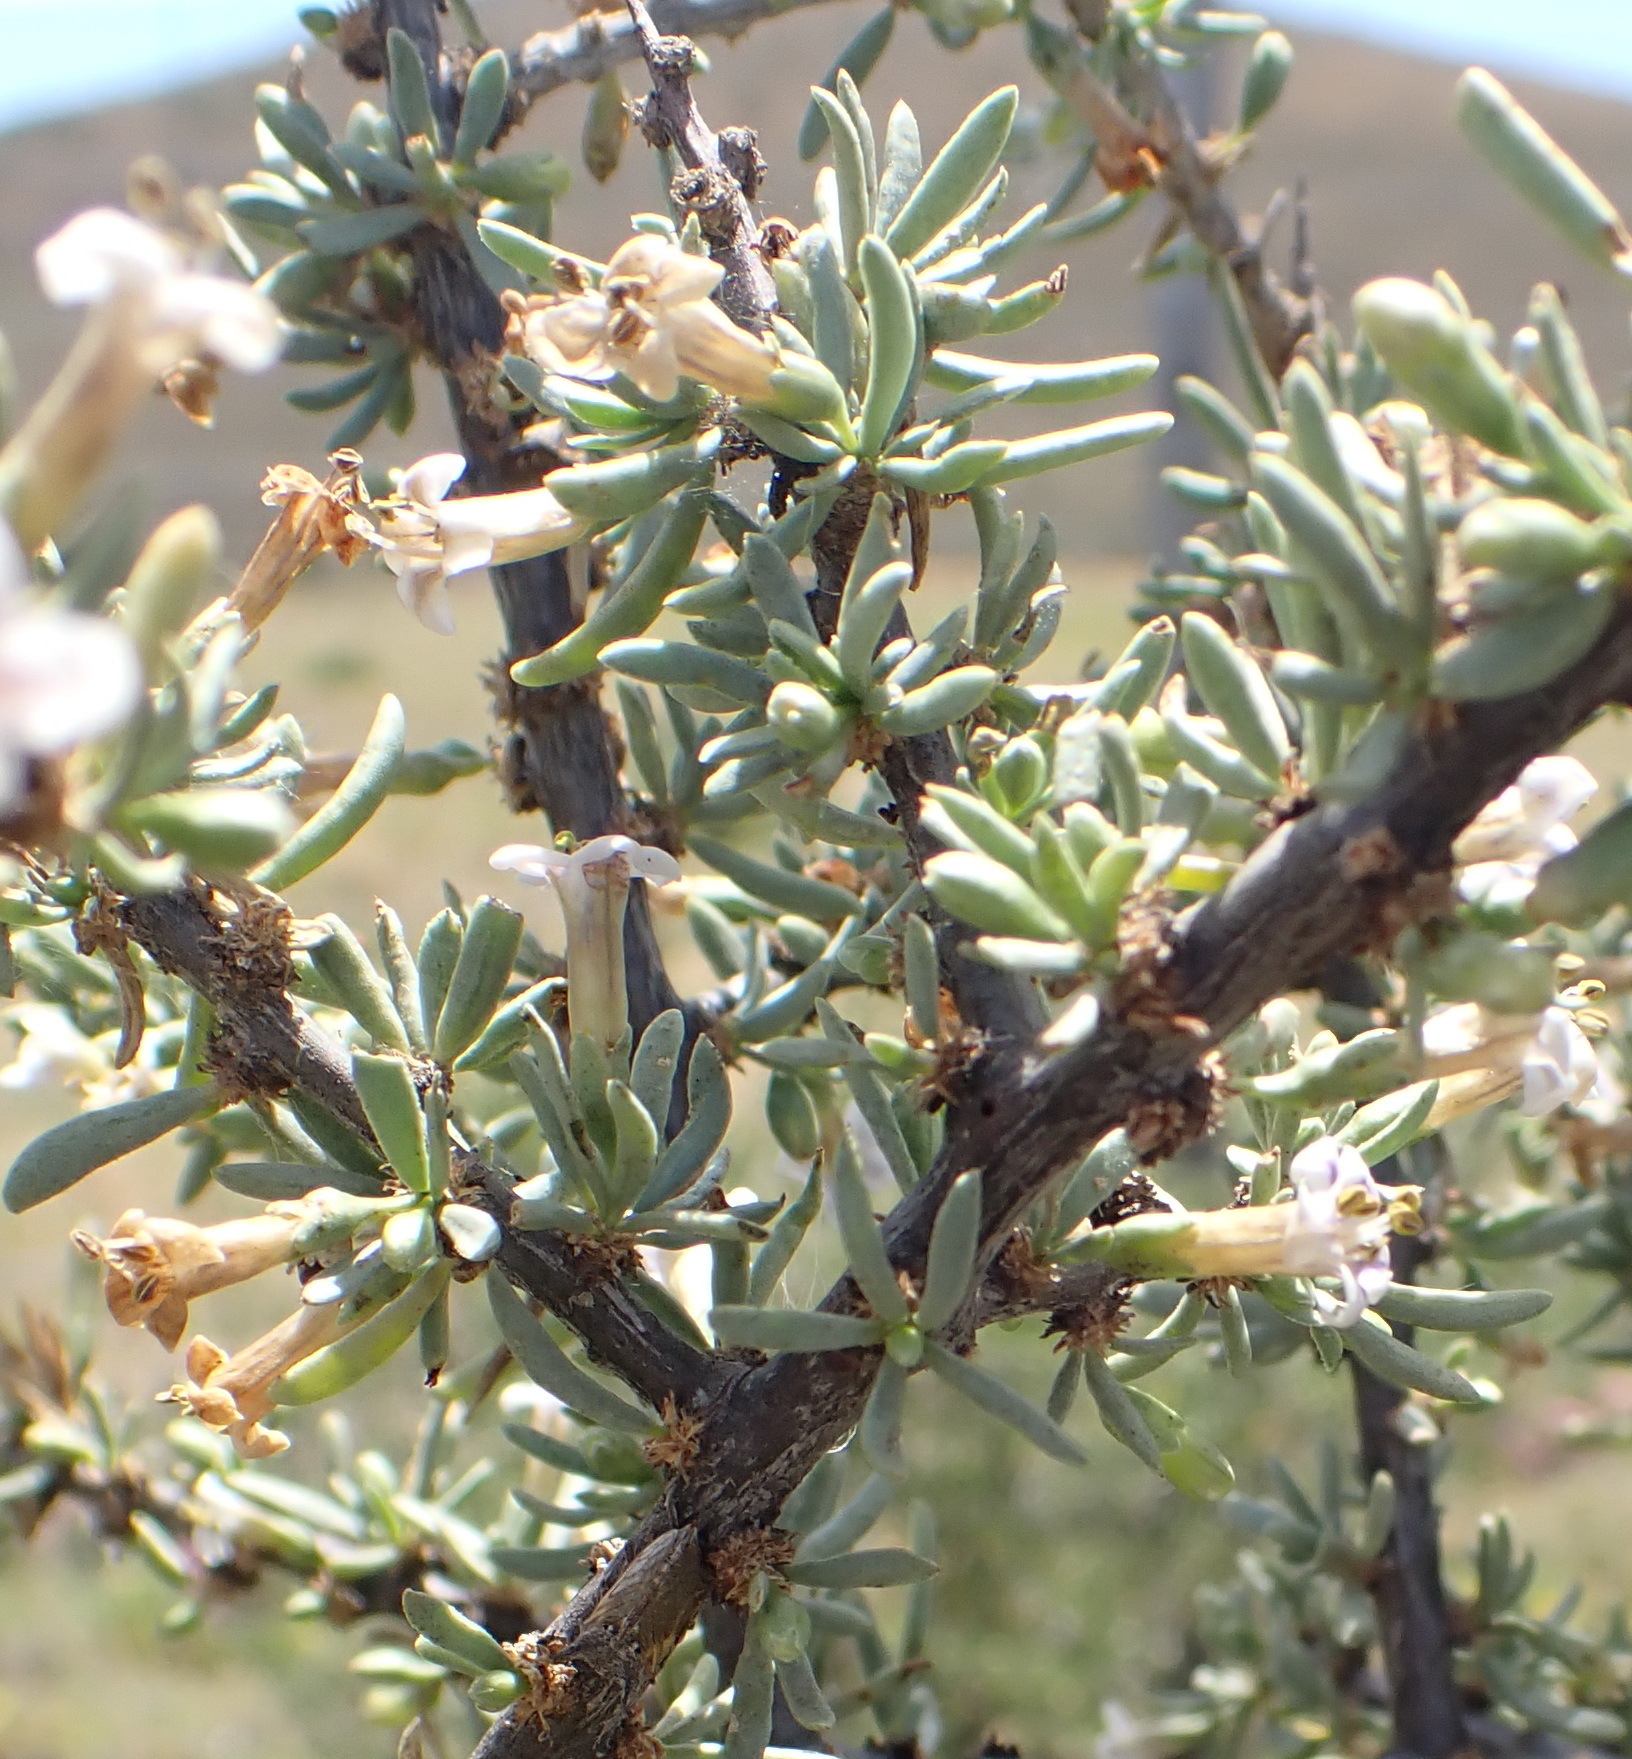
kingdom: Plantae
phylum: Tracheophyta
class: Magnoliopsida
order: Solanales
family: Solanaceae
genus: Lycium
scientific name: Lycium horridum
